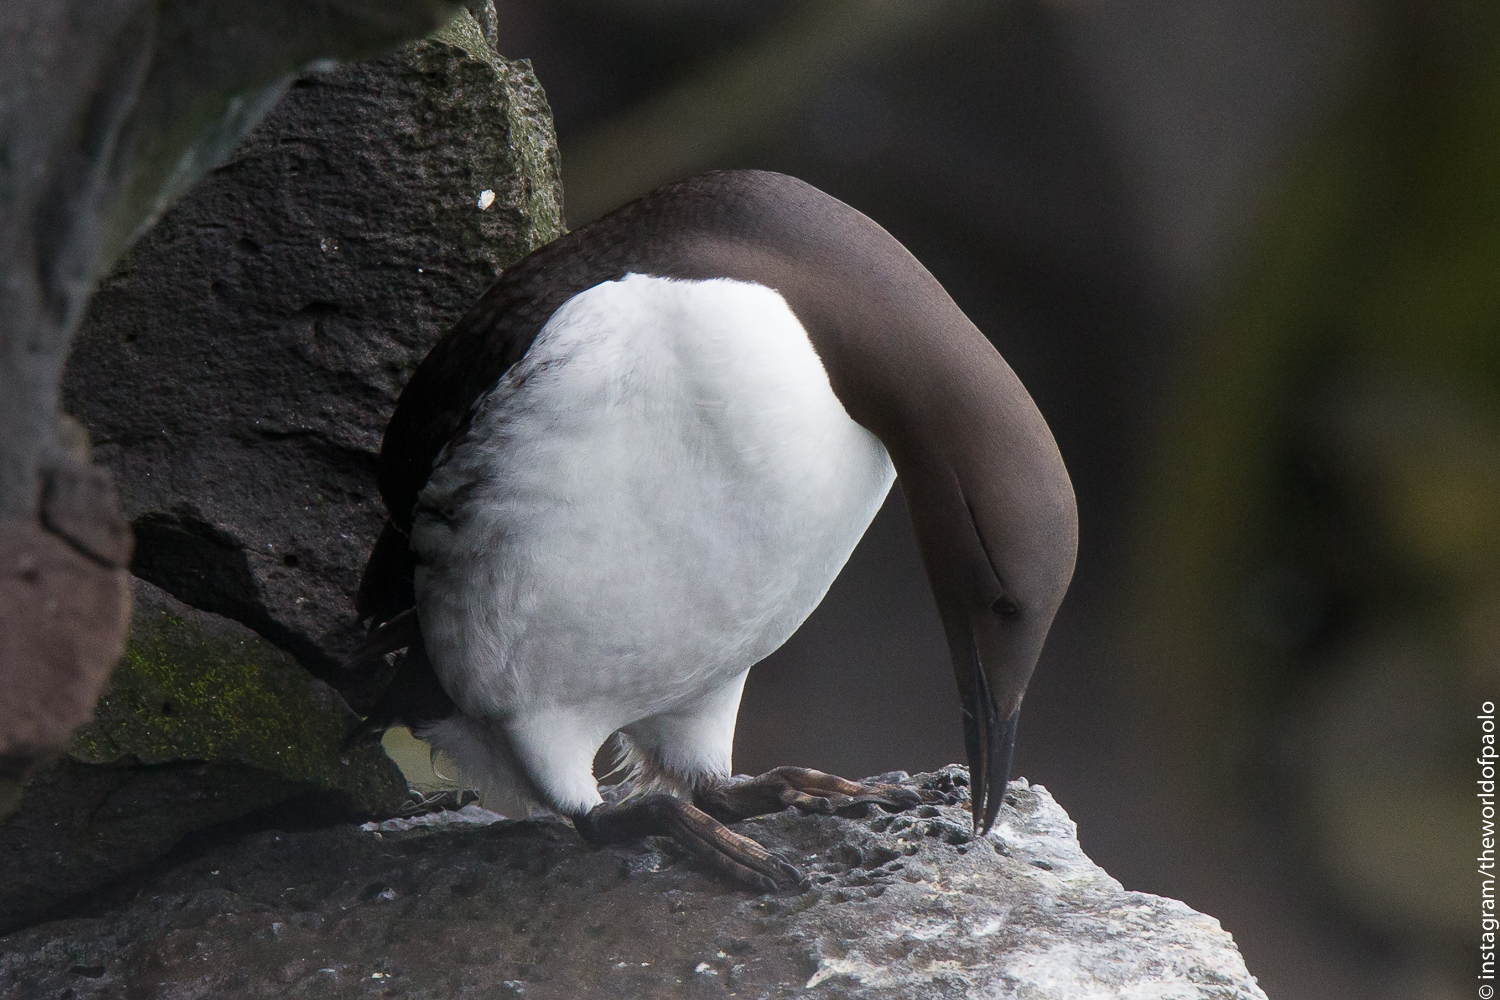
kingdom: Animalia
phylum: Chordata
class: Aves
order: Charadriiformes
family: Alcidae
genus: Uria
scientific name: Uria aalge
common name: Common murre
